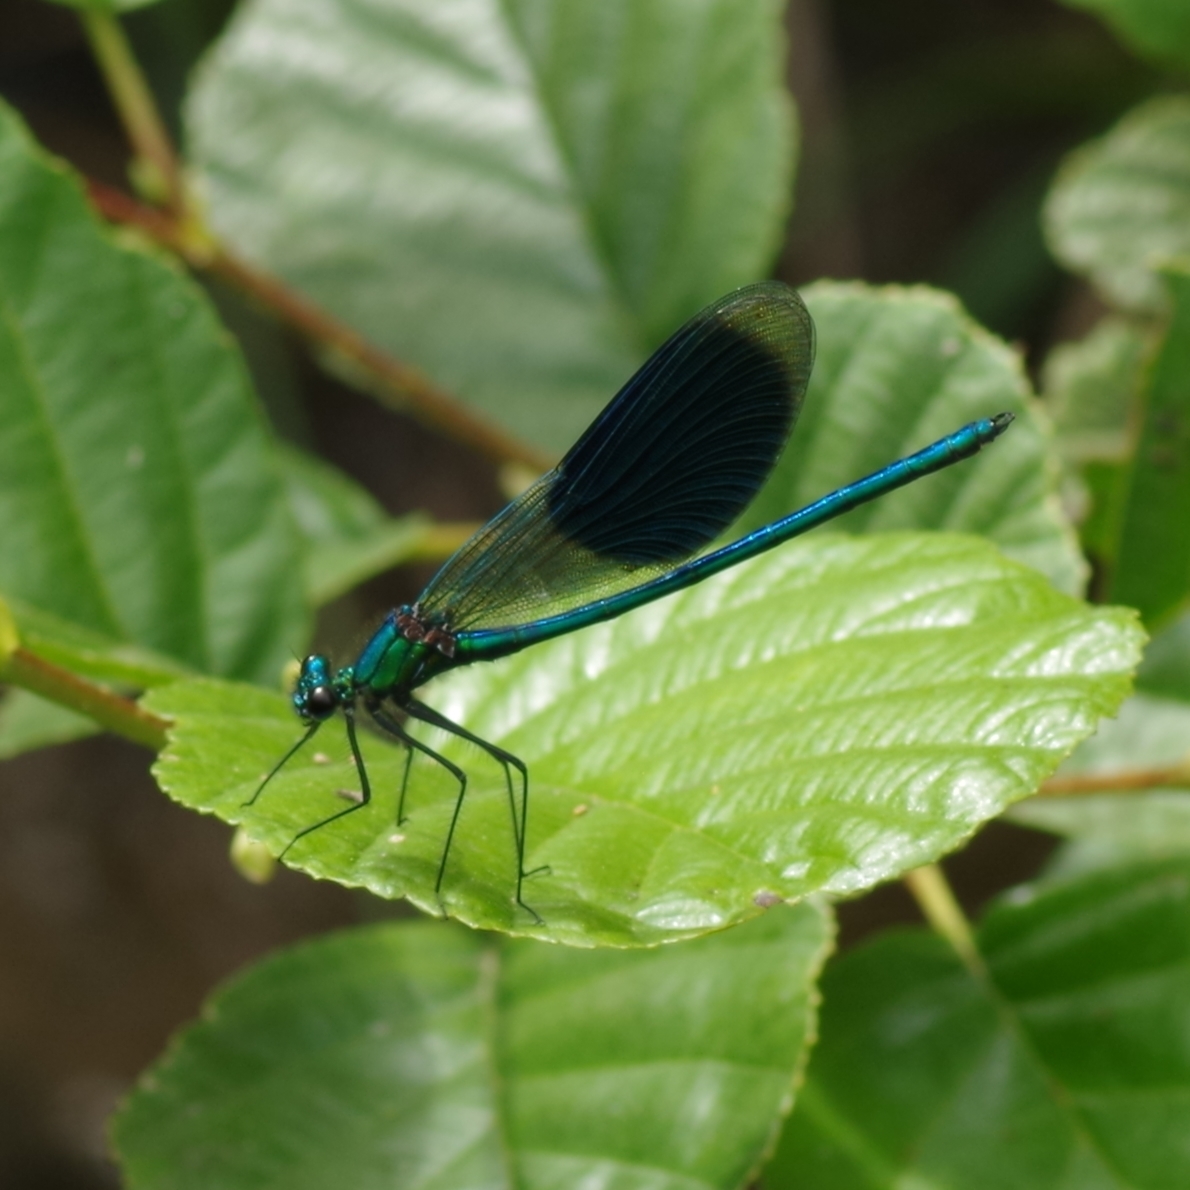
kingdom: Animalia
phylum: Arthropoda
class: Insecta
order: Odonata
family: Calopterygidae
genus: Calopteryx
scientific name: Calopteryx splendens
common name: Banded demoiselle
